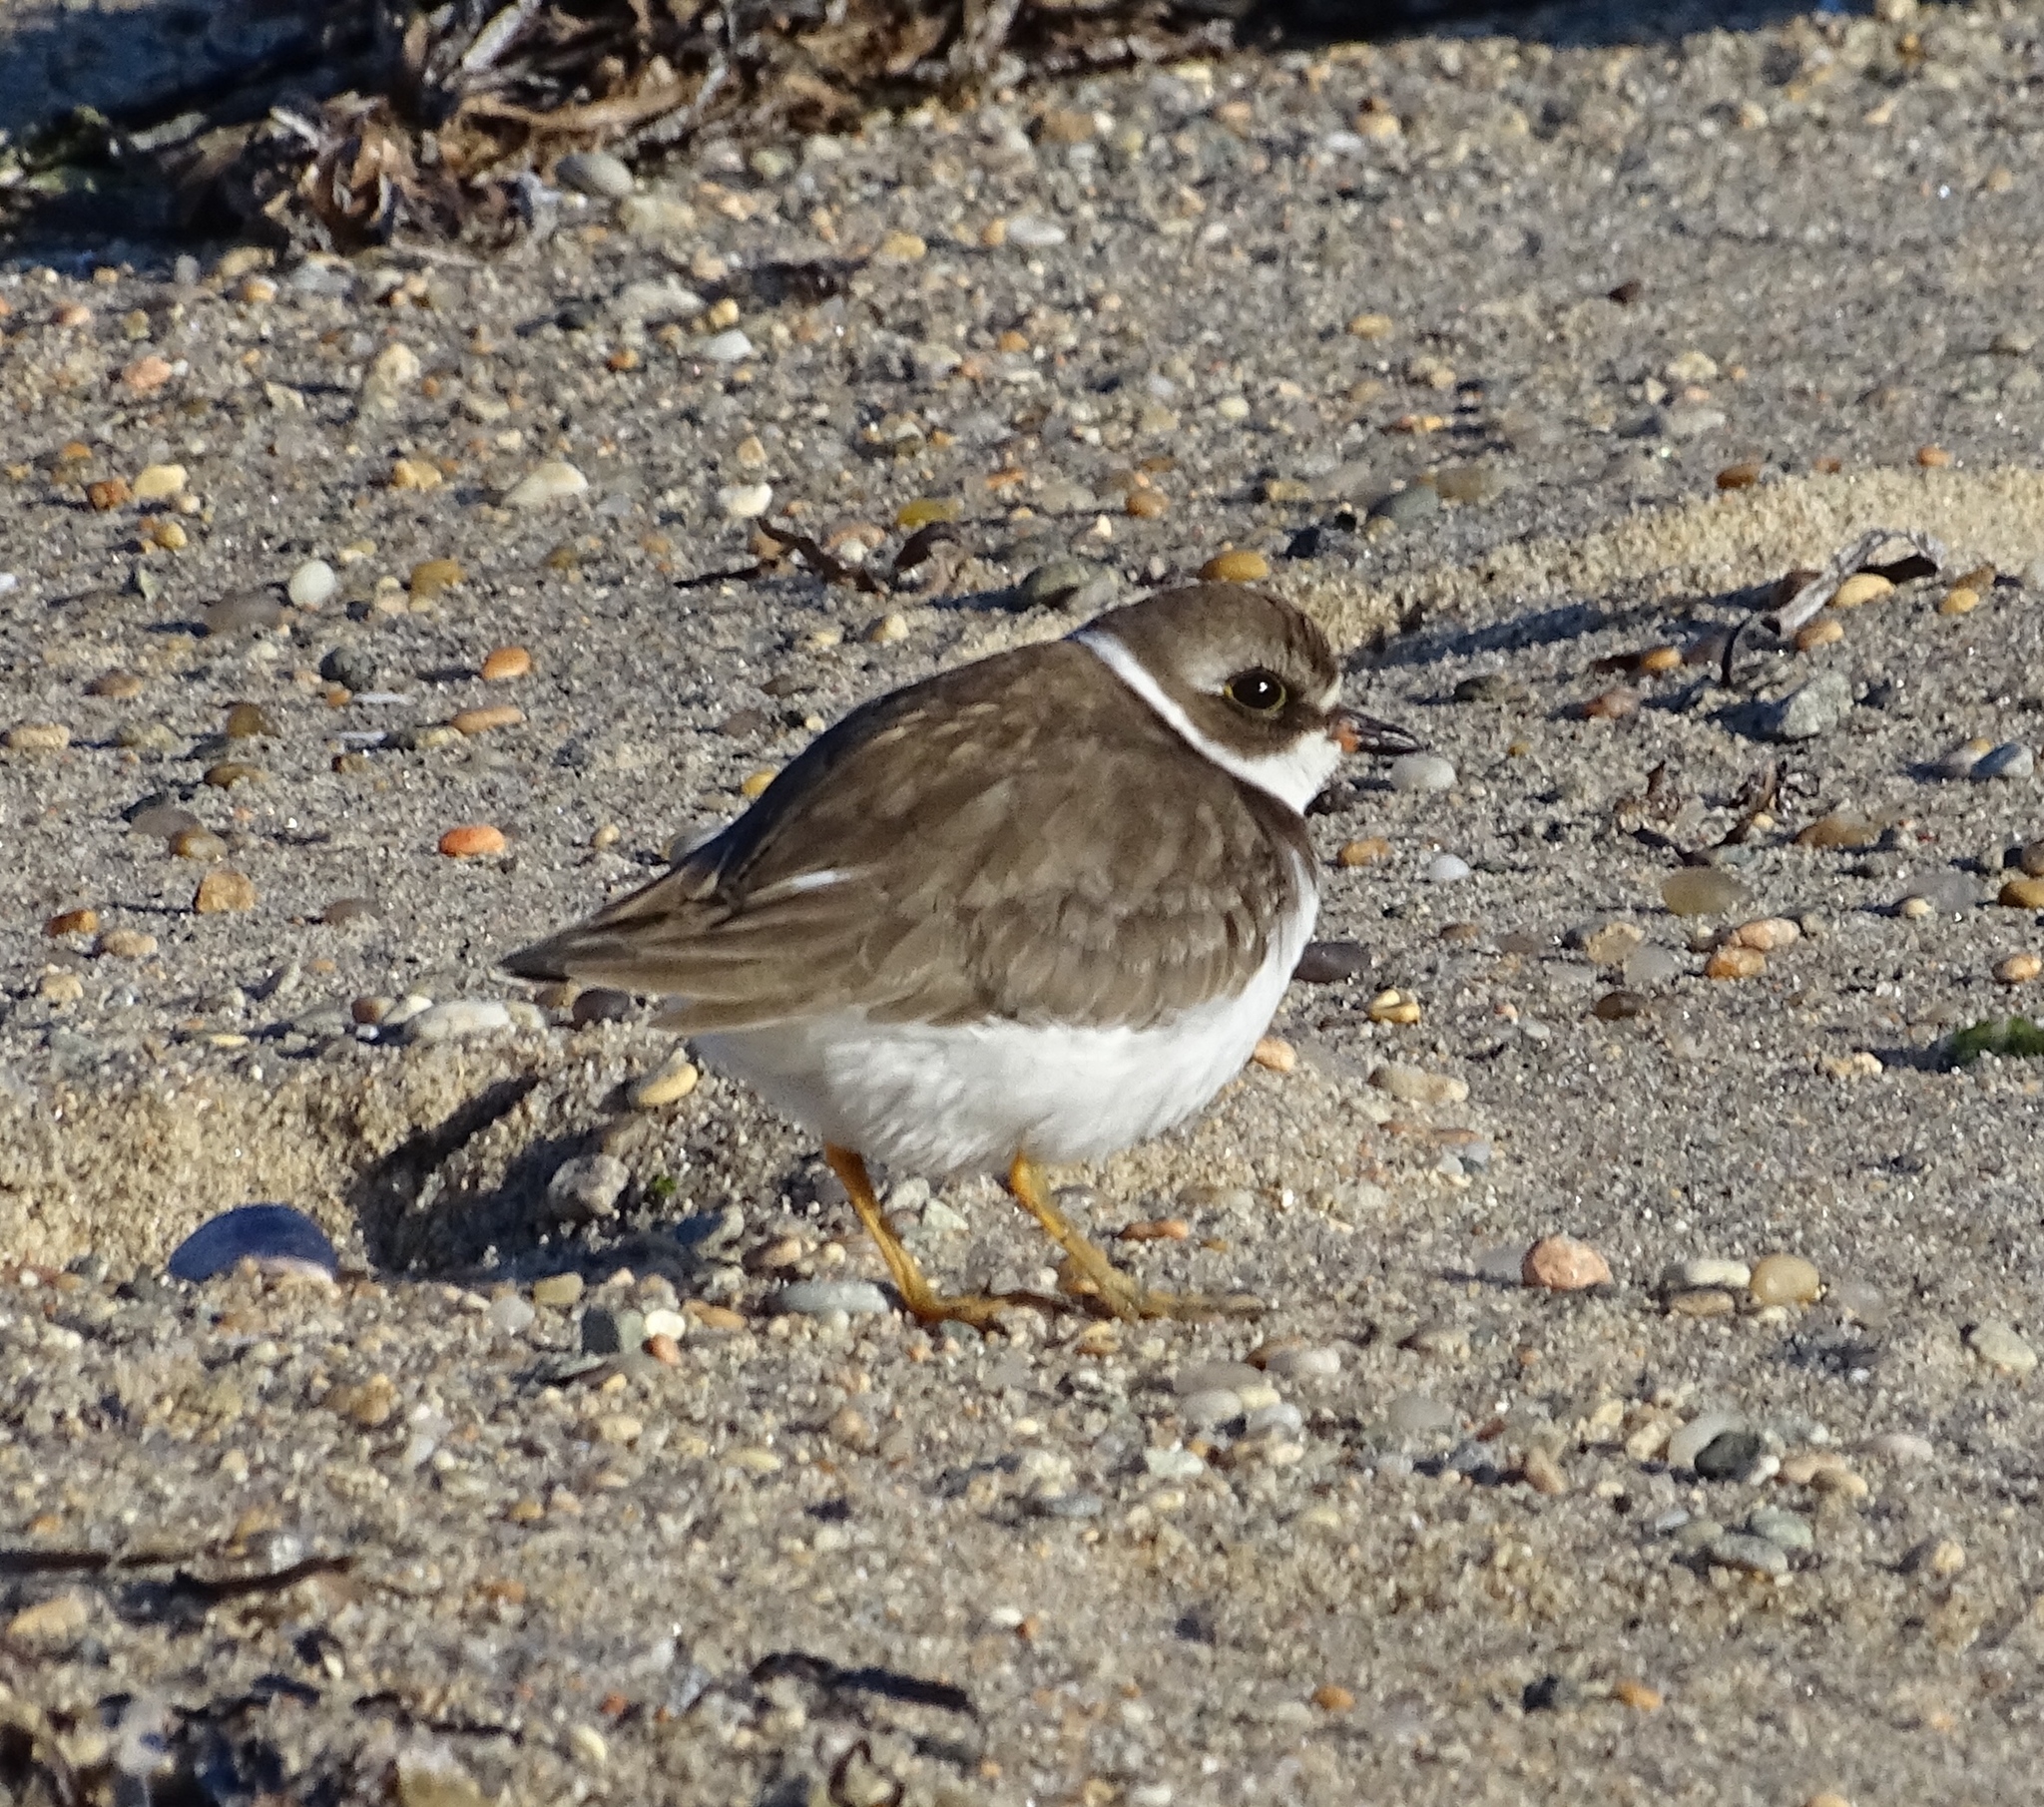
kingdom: Animalia
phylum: Chordata
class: Aves
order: Charadriiformes
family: Charadriidae
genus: Charadrius
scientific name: Charadrius semipalmatus
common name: Semipalmated plover
